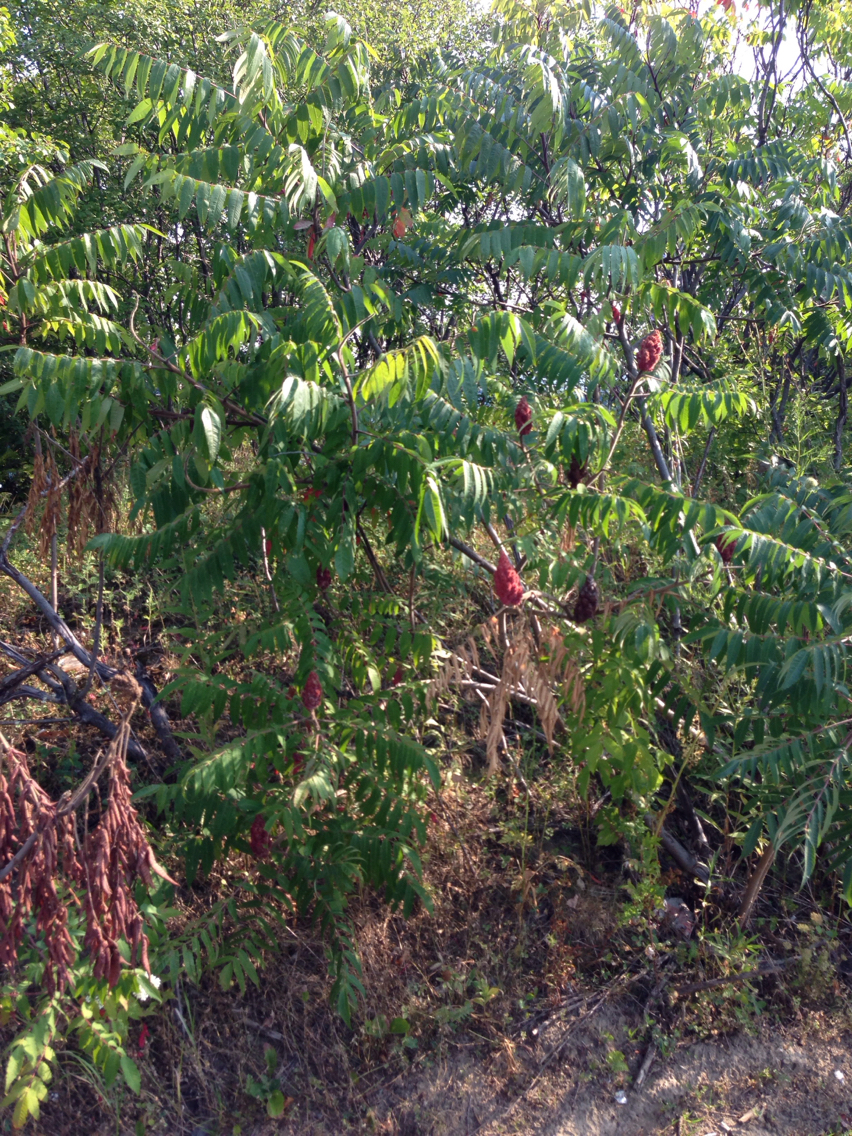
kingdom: Plantae
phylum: Tracheophyta
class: Magnoliopsida
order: Sapindales
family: Anacardiaceae
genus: Rhus
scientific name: Rhus typhina
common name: Staghorn sumac
